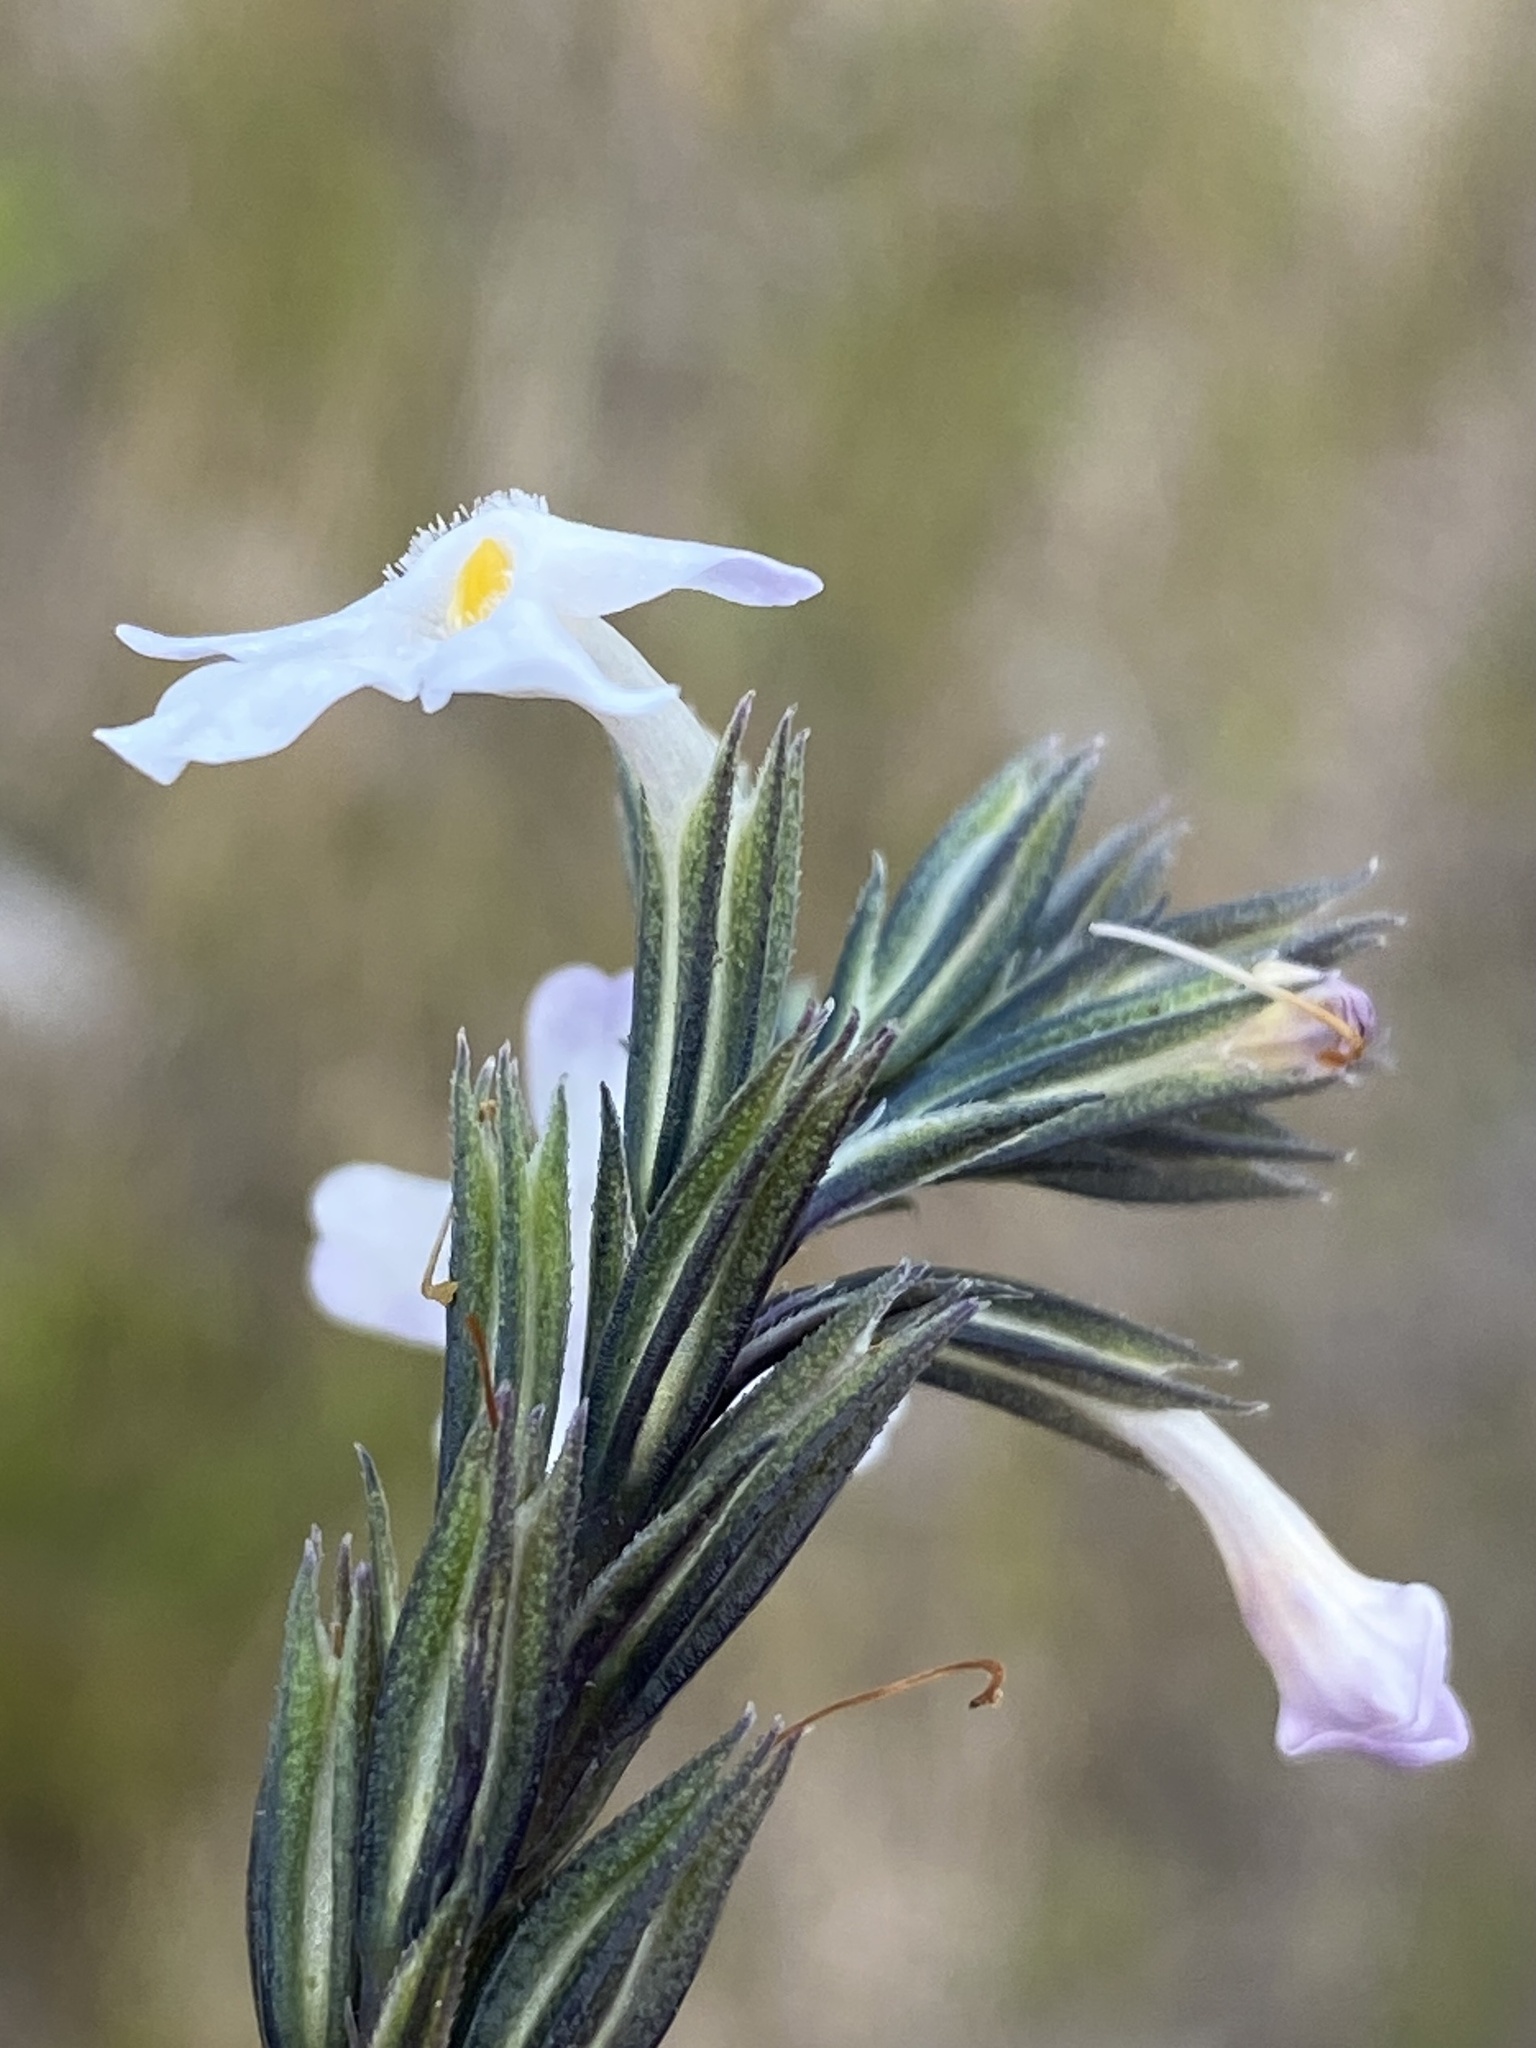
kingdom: Plantae
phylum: Tracheophyta
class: Magnoliopsida
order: Lamiales
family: Verbenaceae
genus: Chascanum
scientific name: Chascanum cernuum
